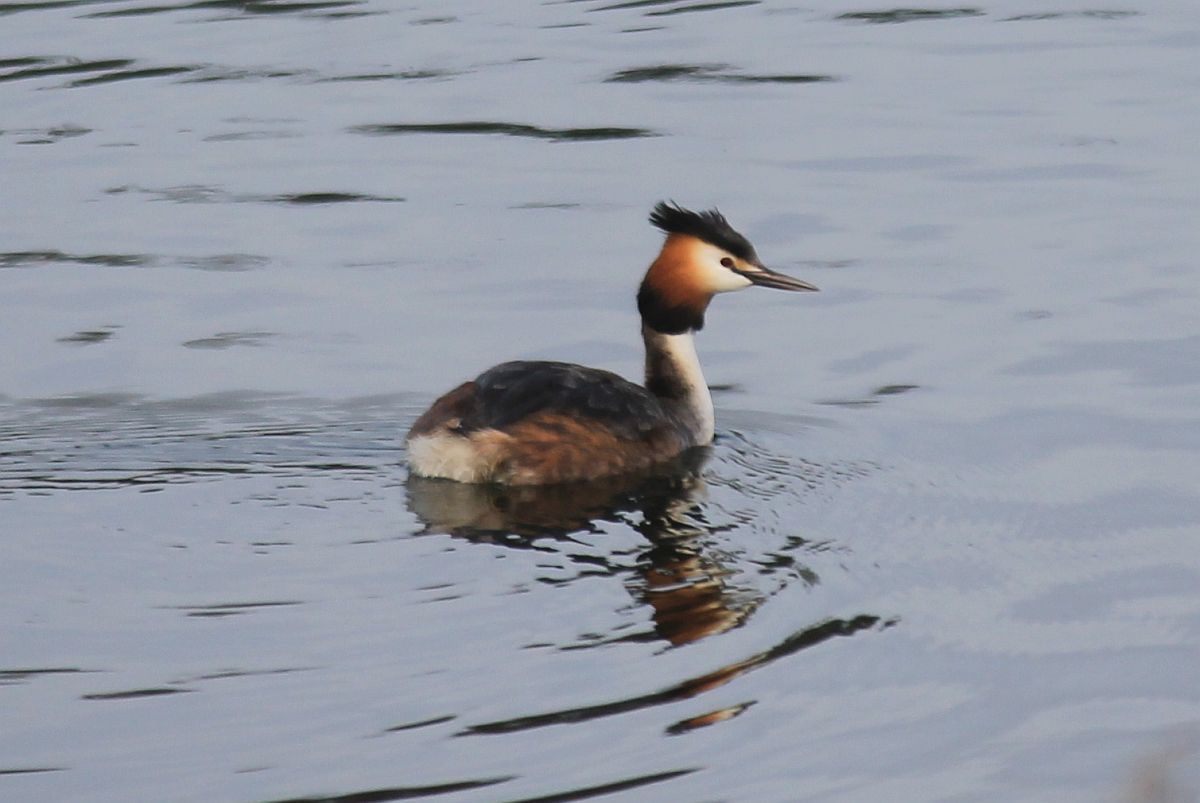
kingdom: Animalia
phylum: Chordata
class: Aves
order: Podicipediformes
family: Podicipedidae
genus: Podiceps
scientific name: Podiceps cristatus
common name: Great crested grebe
